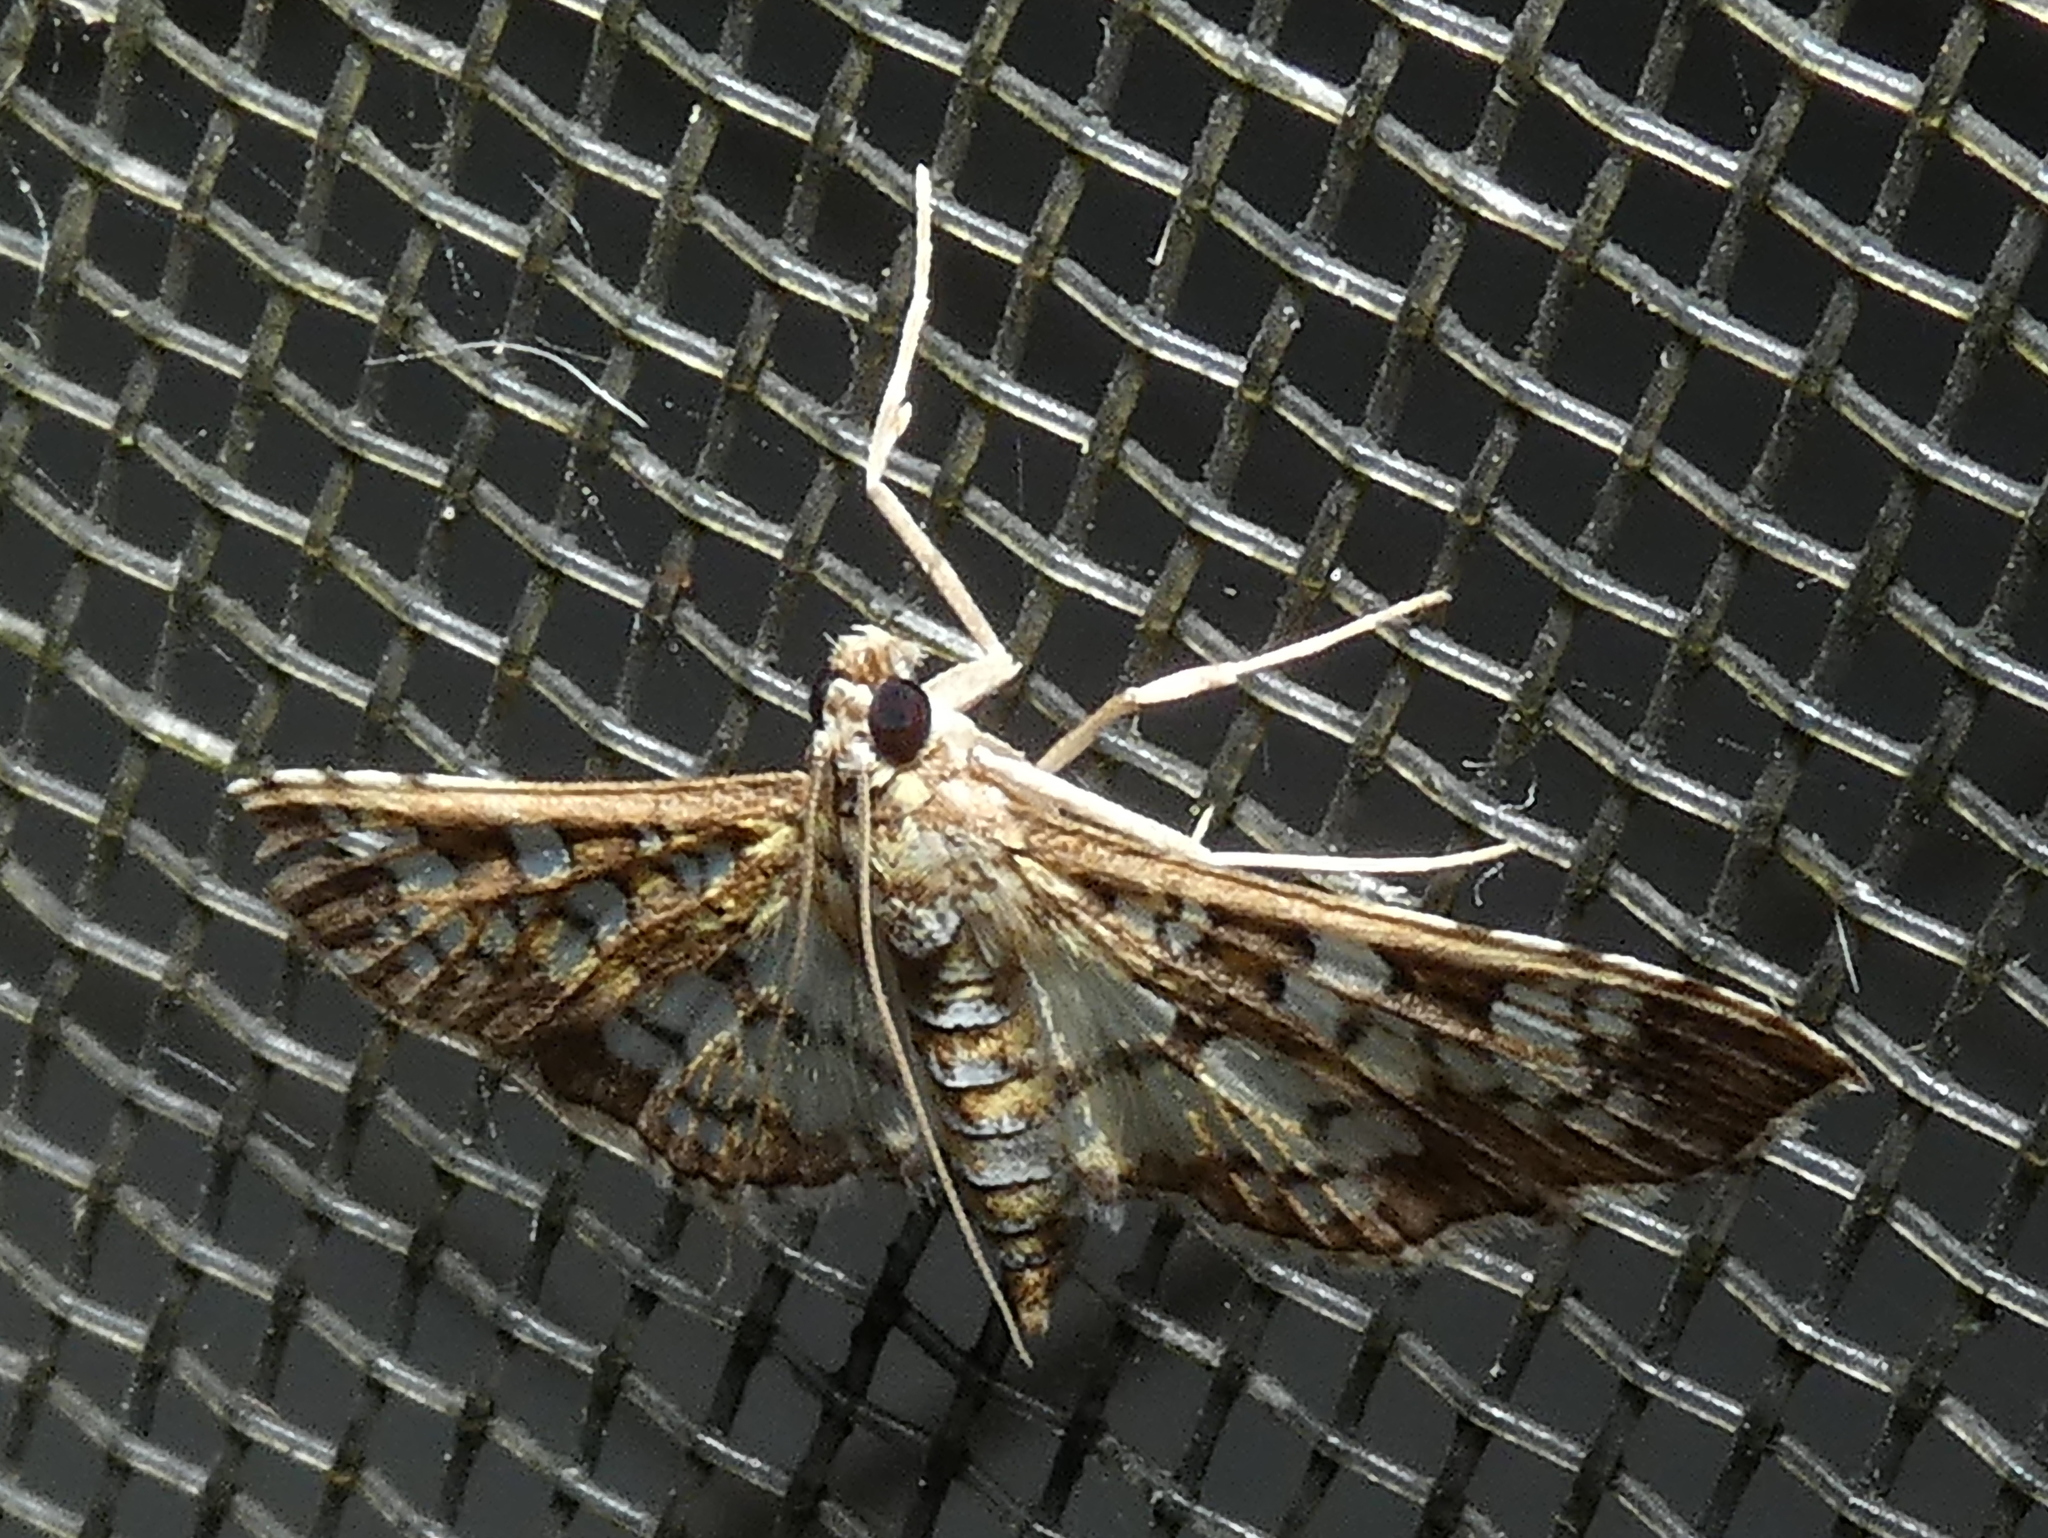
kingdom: Animalia
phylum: Arthropoda
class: Insecta
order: Lepidoptera
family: Crambidae
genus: Samea
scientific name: Samea ecclesialis
